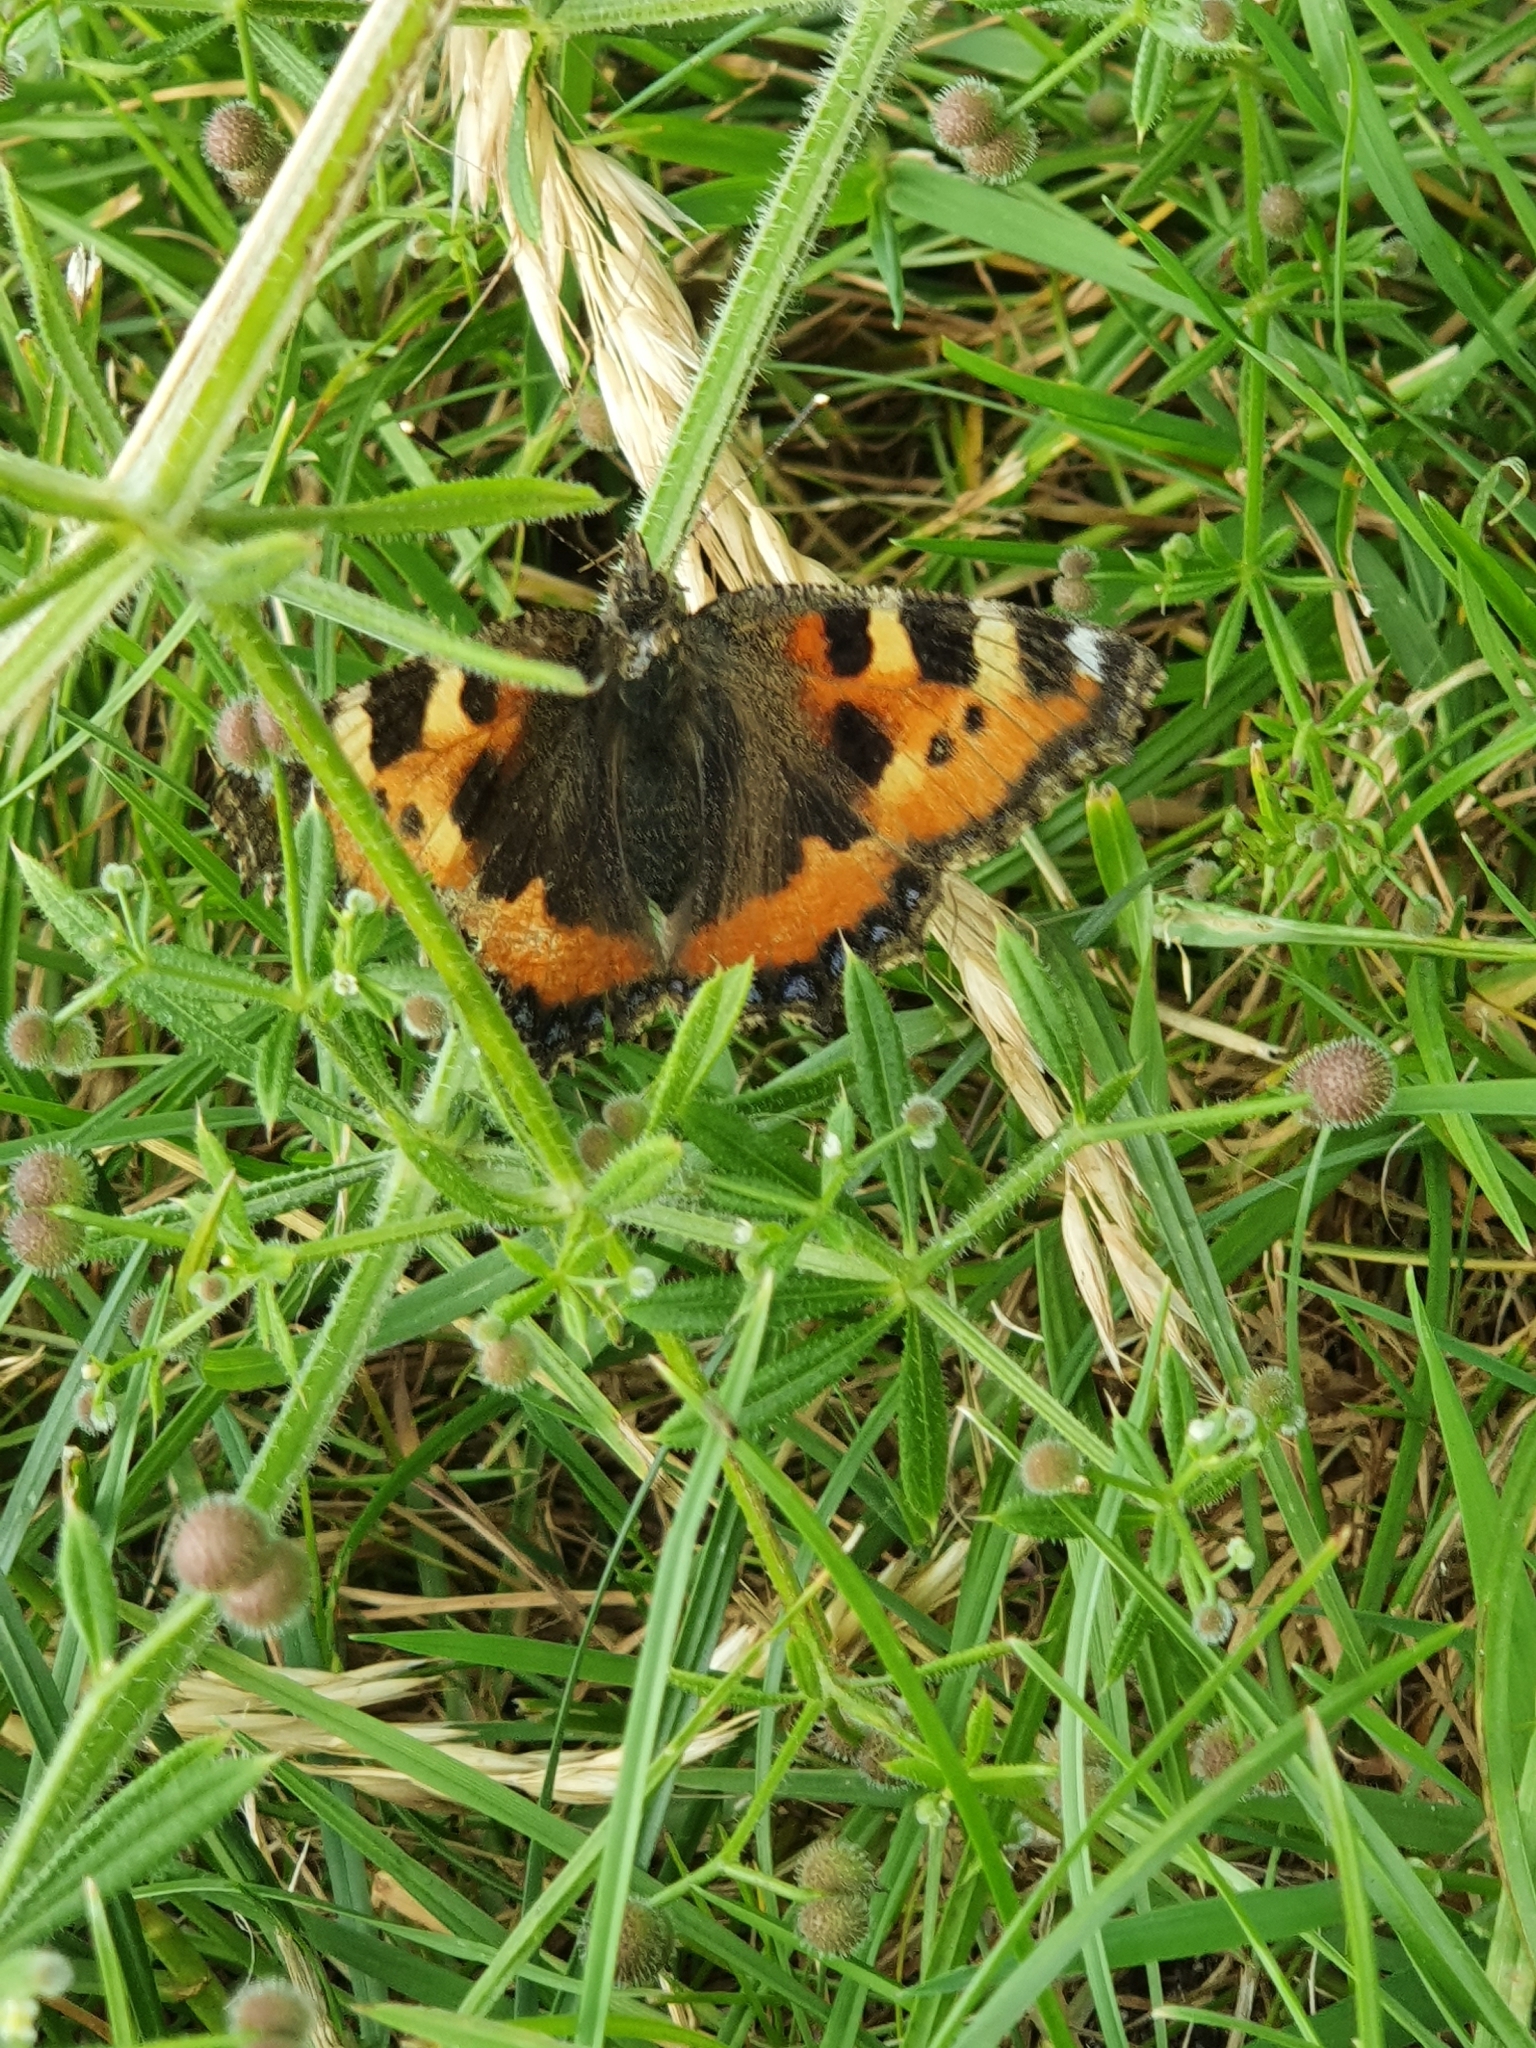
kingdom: Animalia
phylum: Arthropoda
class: Insecta
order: Lepidoptera
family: Nymphalidae
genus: Aglais
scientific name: Aglais urticae
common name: Small tortoiseshell
